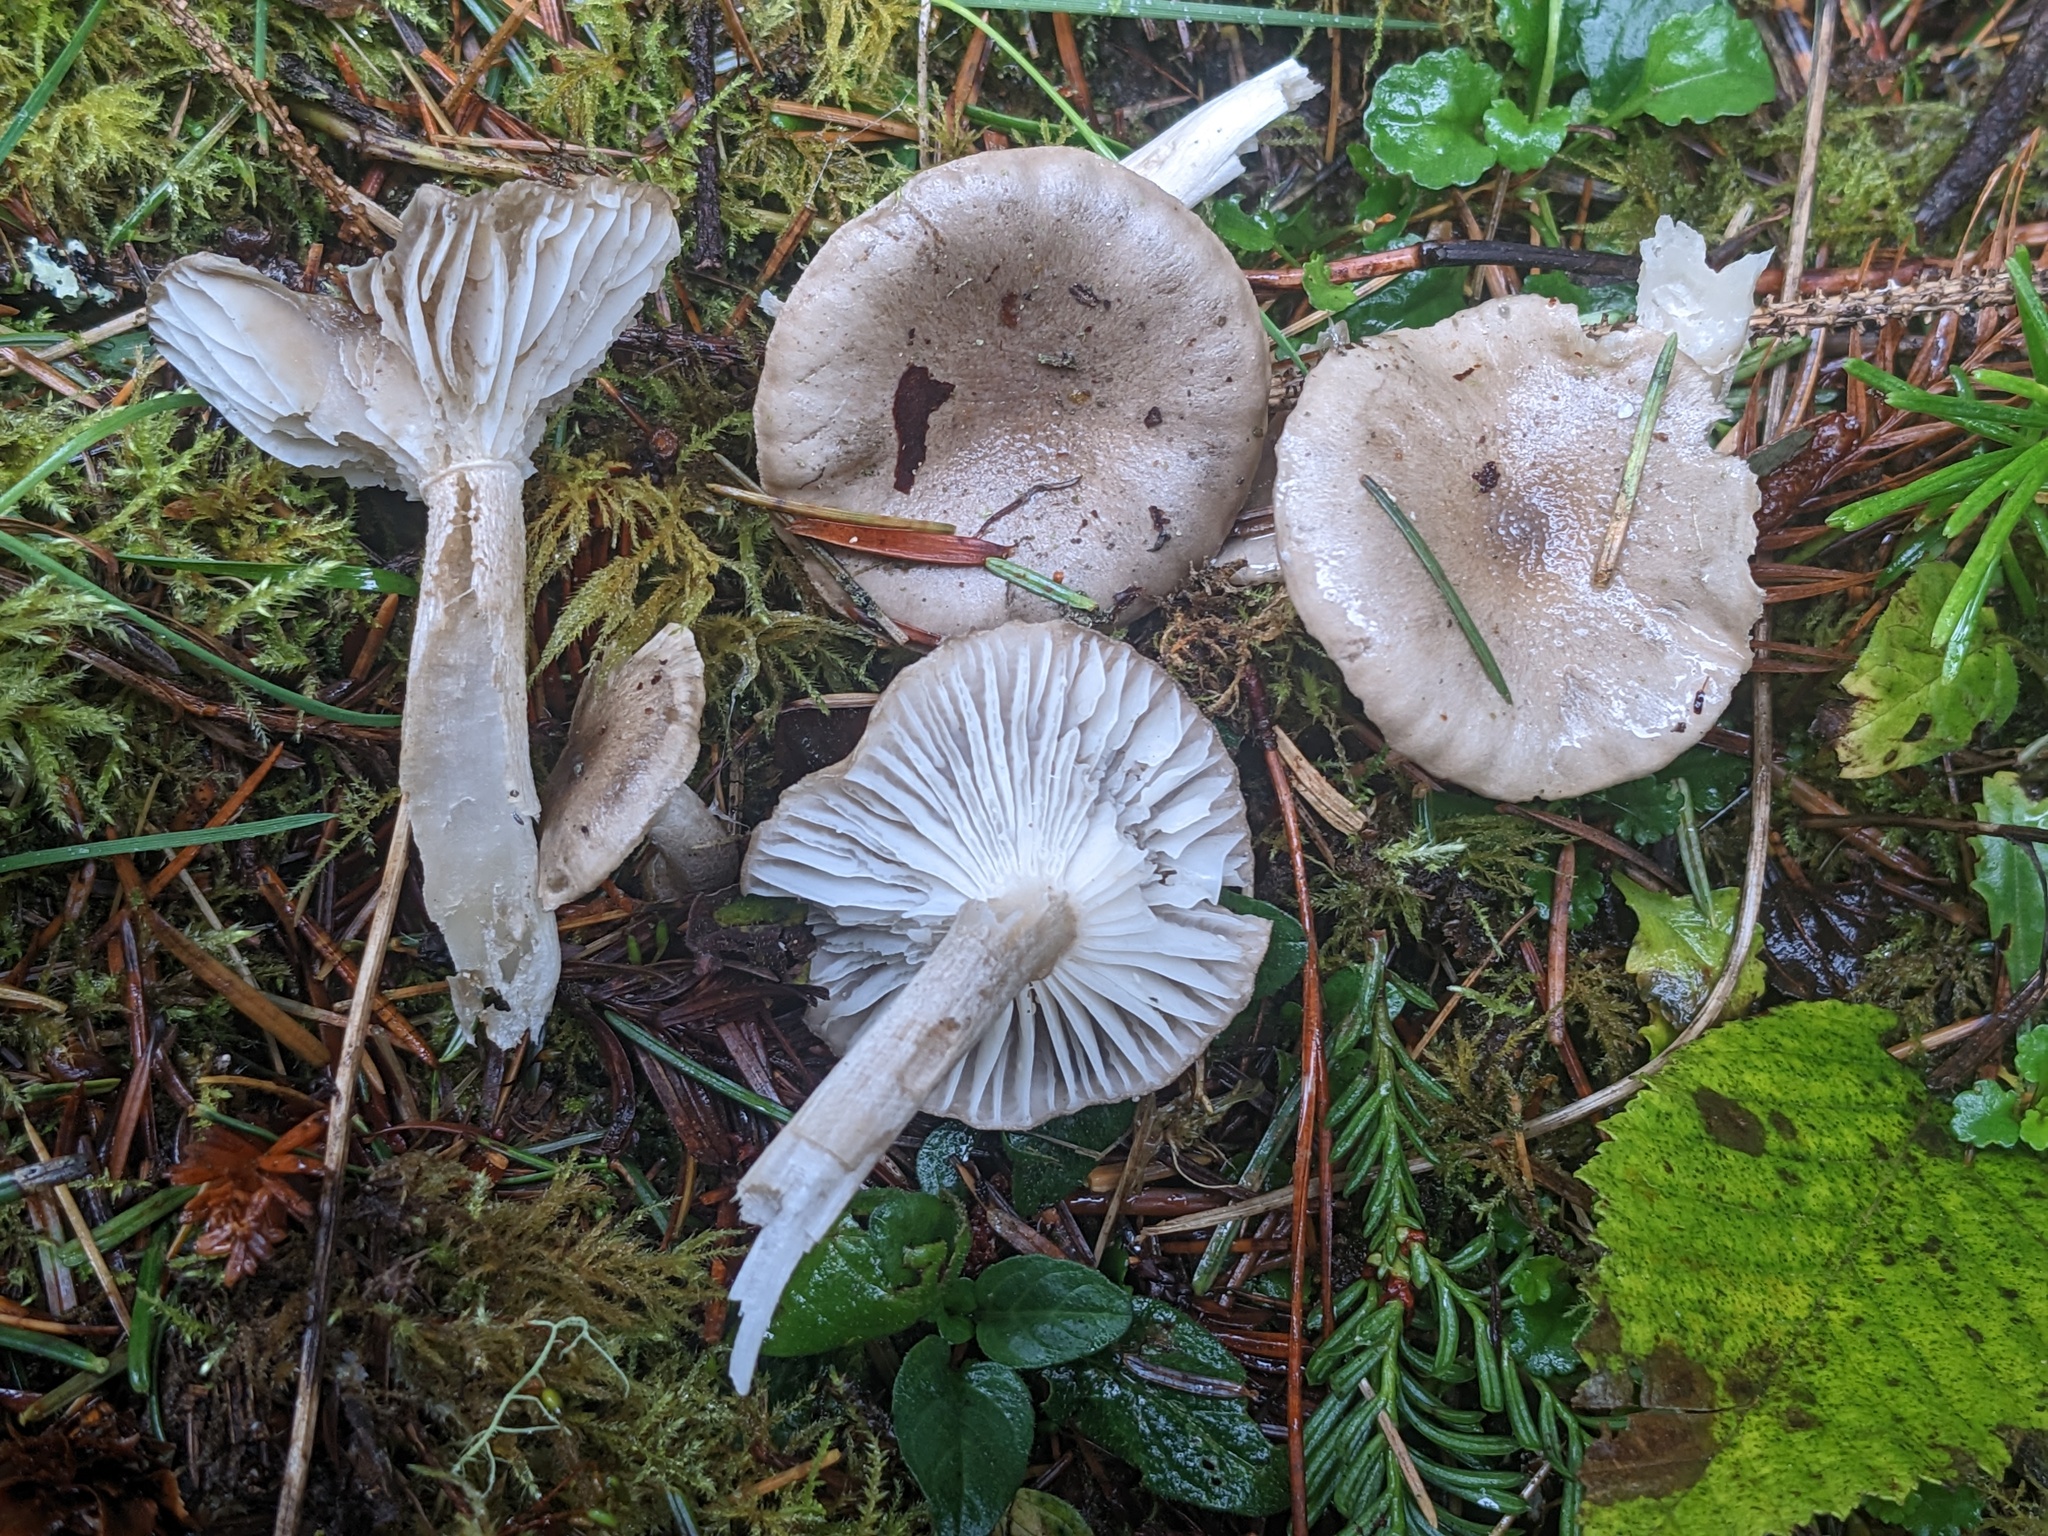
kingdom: Fungi
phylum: Basidiomycota
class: Agaricomycetes
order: Agaricales
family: Hygrophoraceae
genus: Hygrophorus
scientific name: Hygrophorus agathosmus
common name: Almond woodwax
